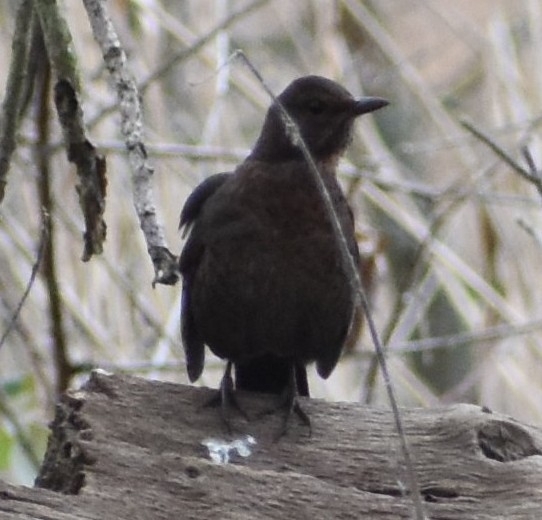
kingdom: Animalia
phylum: Chordata
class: Aves
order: Passeriformes
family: Turdidae
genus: Turdus
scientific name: Turdus merula
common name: Common blackbird
